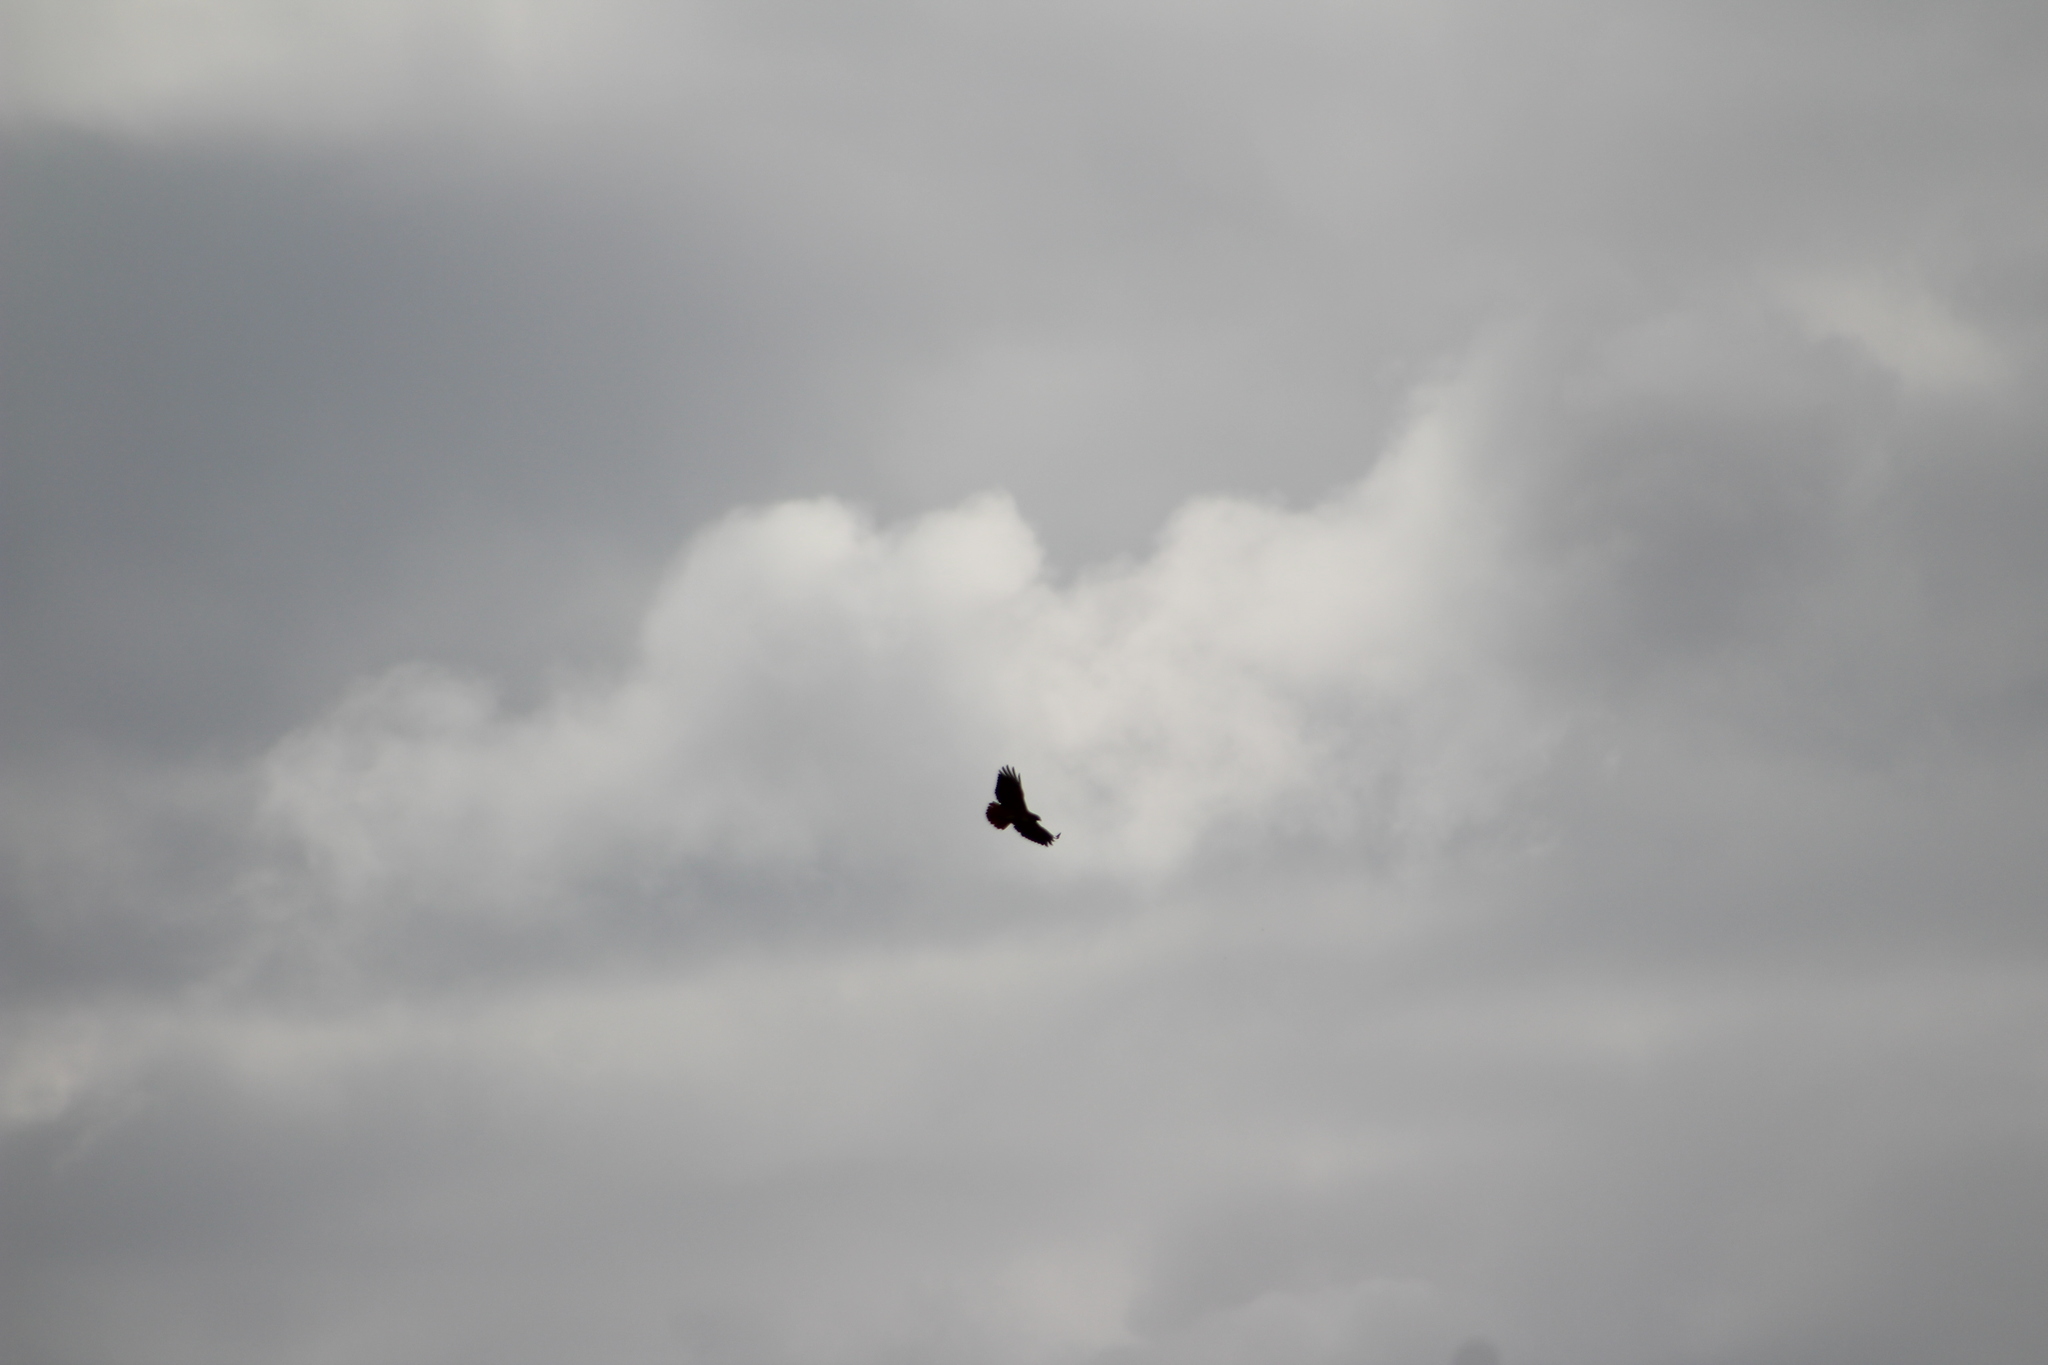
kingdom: Animalia
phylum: Chordata
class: Aves
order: Accipitriformes
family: Accipitridae
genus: Buteo
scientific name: Buteo jamaicensis
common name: Red-tailed hawk
